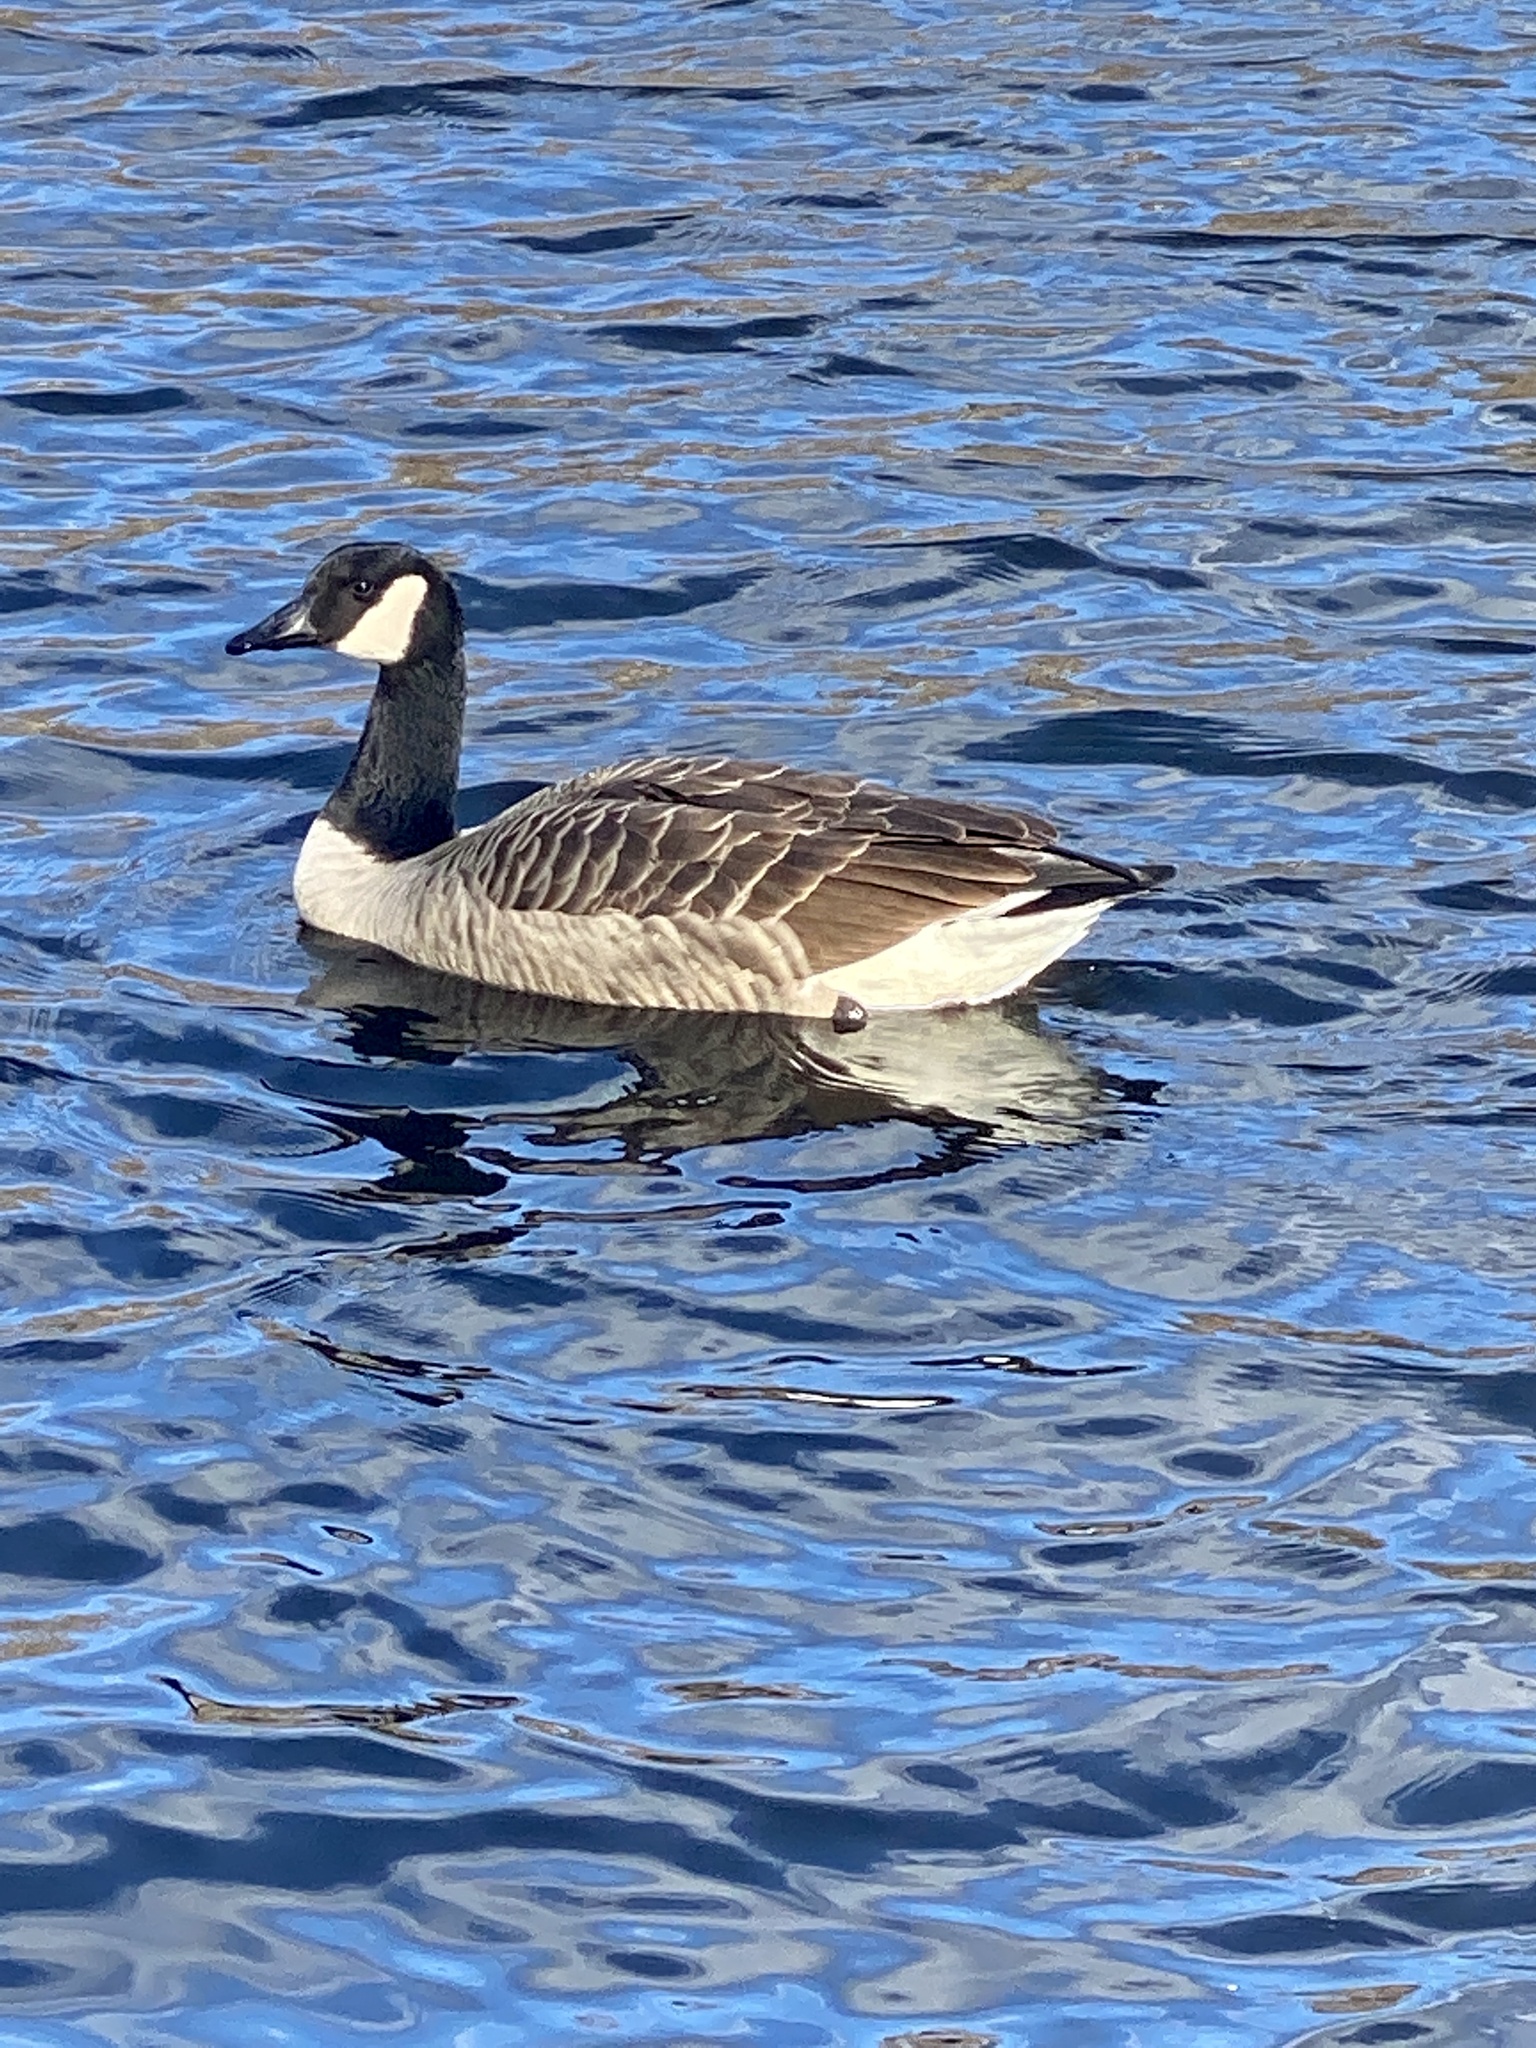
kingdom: Animalia
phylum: Chordata
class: Aves
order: Anseriformes
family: Anatidae
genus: Branta
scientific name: Branta canadensis
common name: Canada goose
